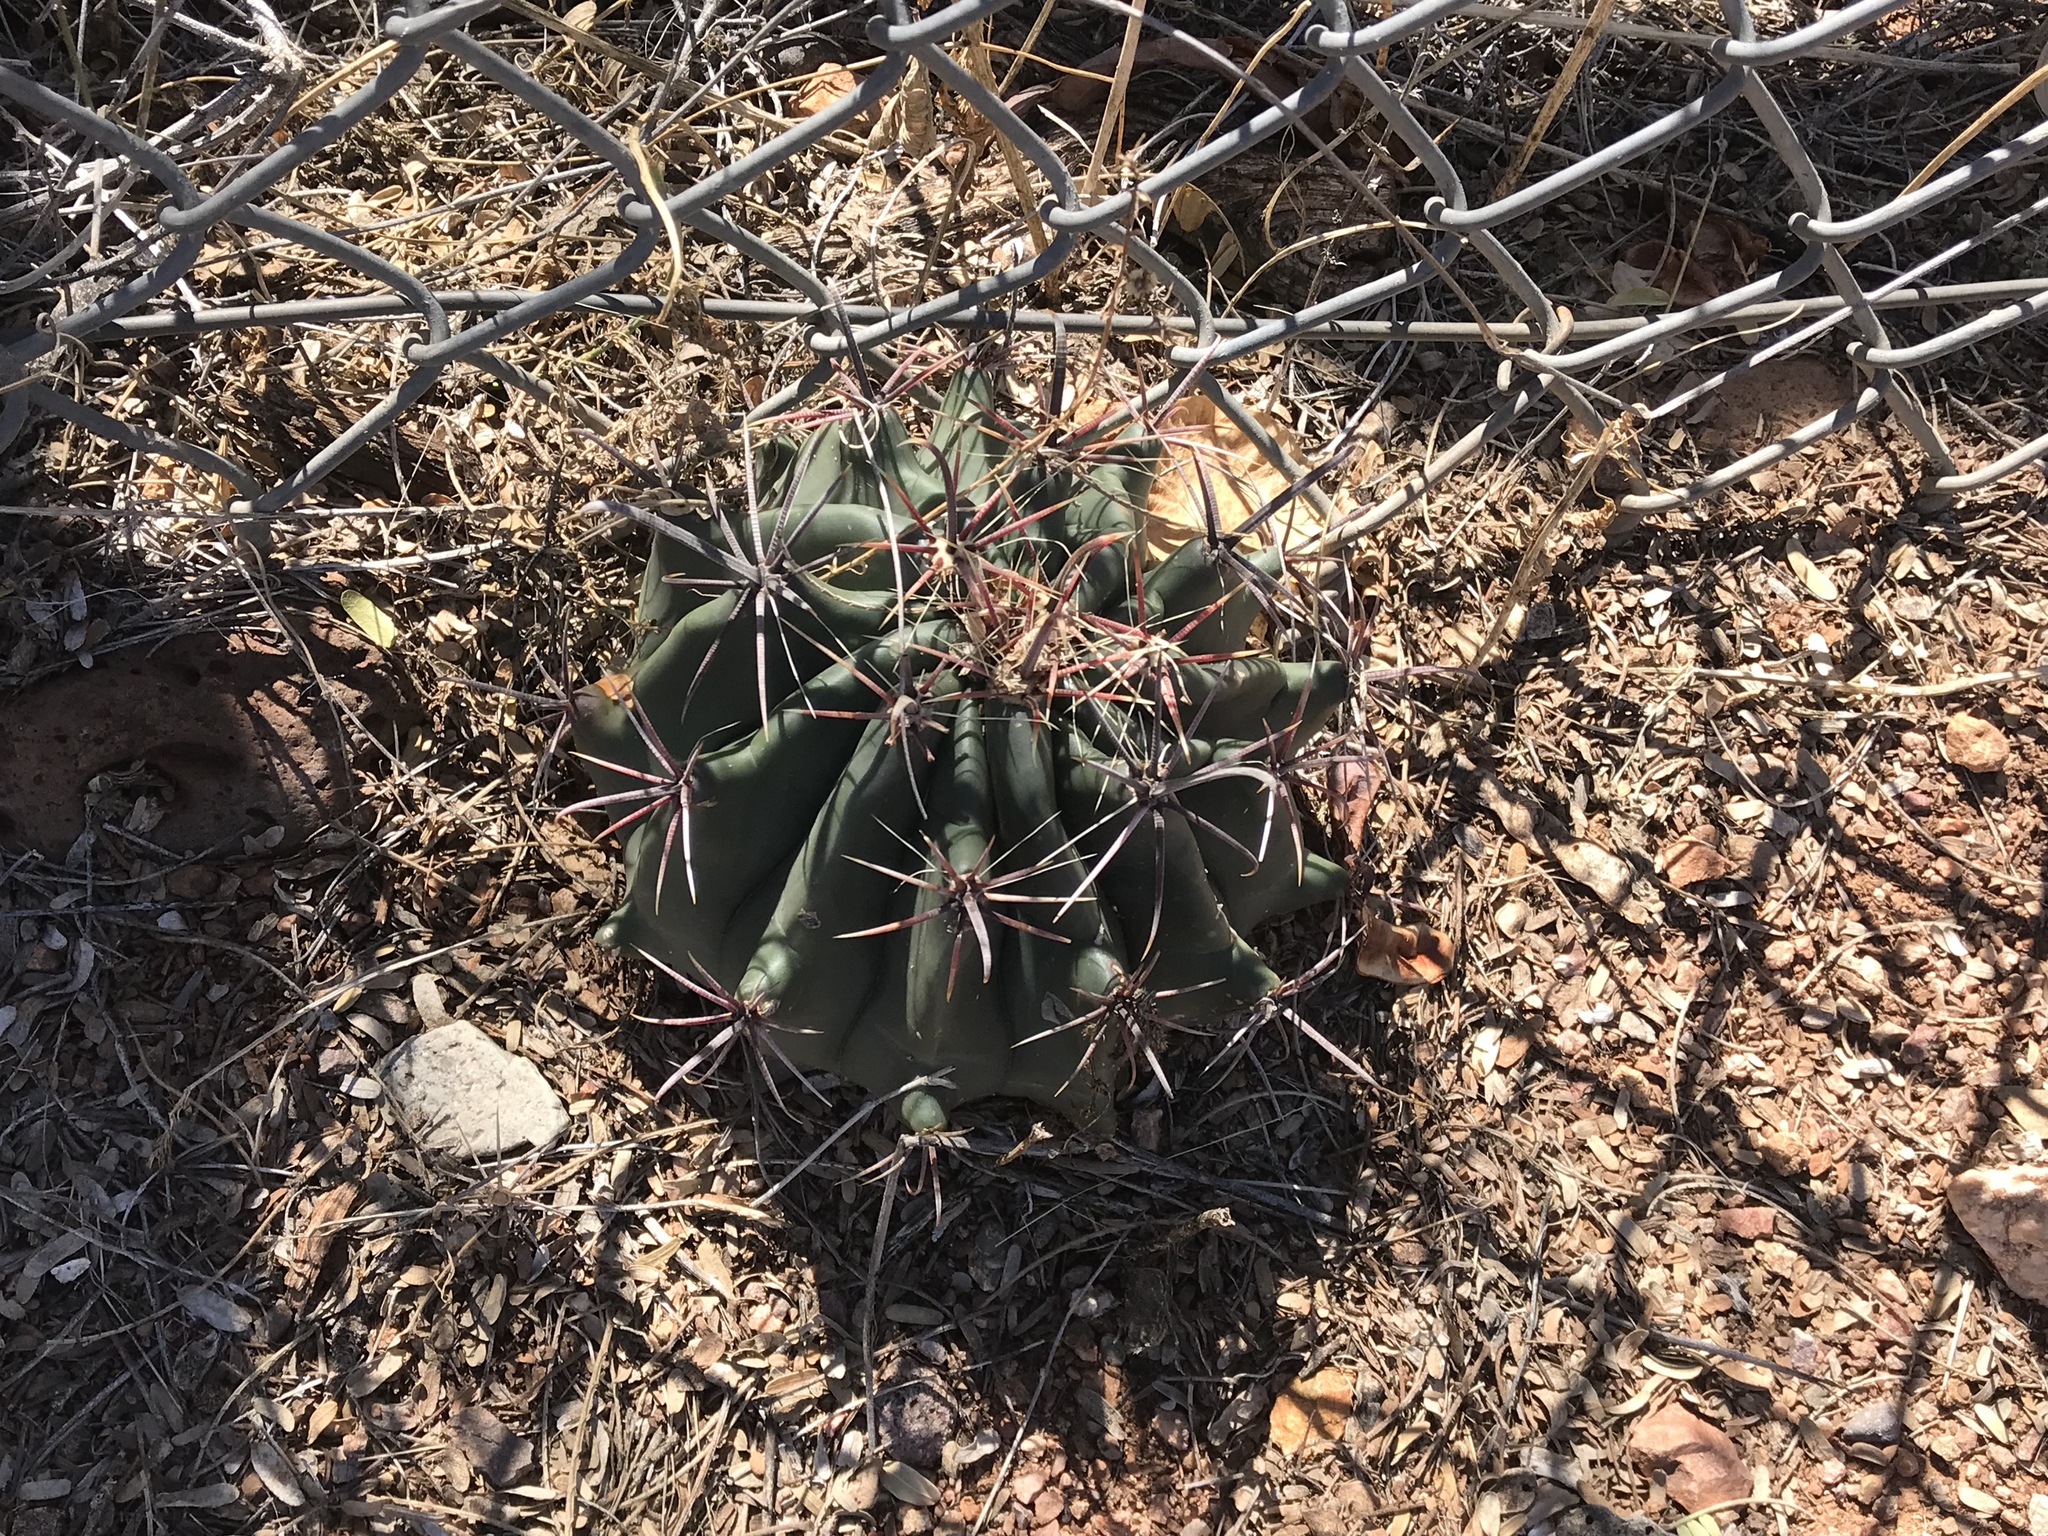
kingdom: Plantae
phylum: Tracheophyta
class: Magnoliopsida
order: Caryophyllales
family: Cactaceae
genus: Ferocactus
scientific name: Ferocactus wislizeni
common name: Candy barrel cactus
